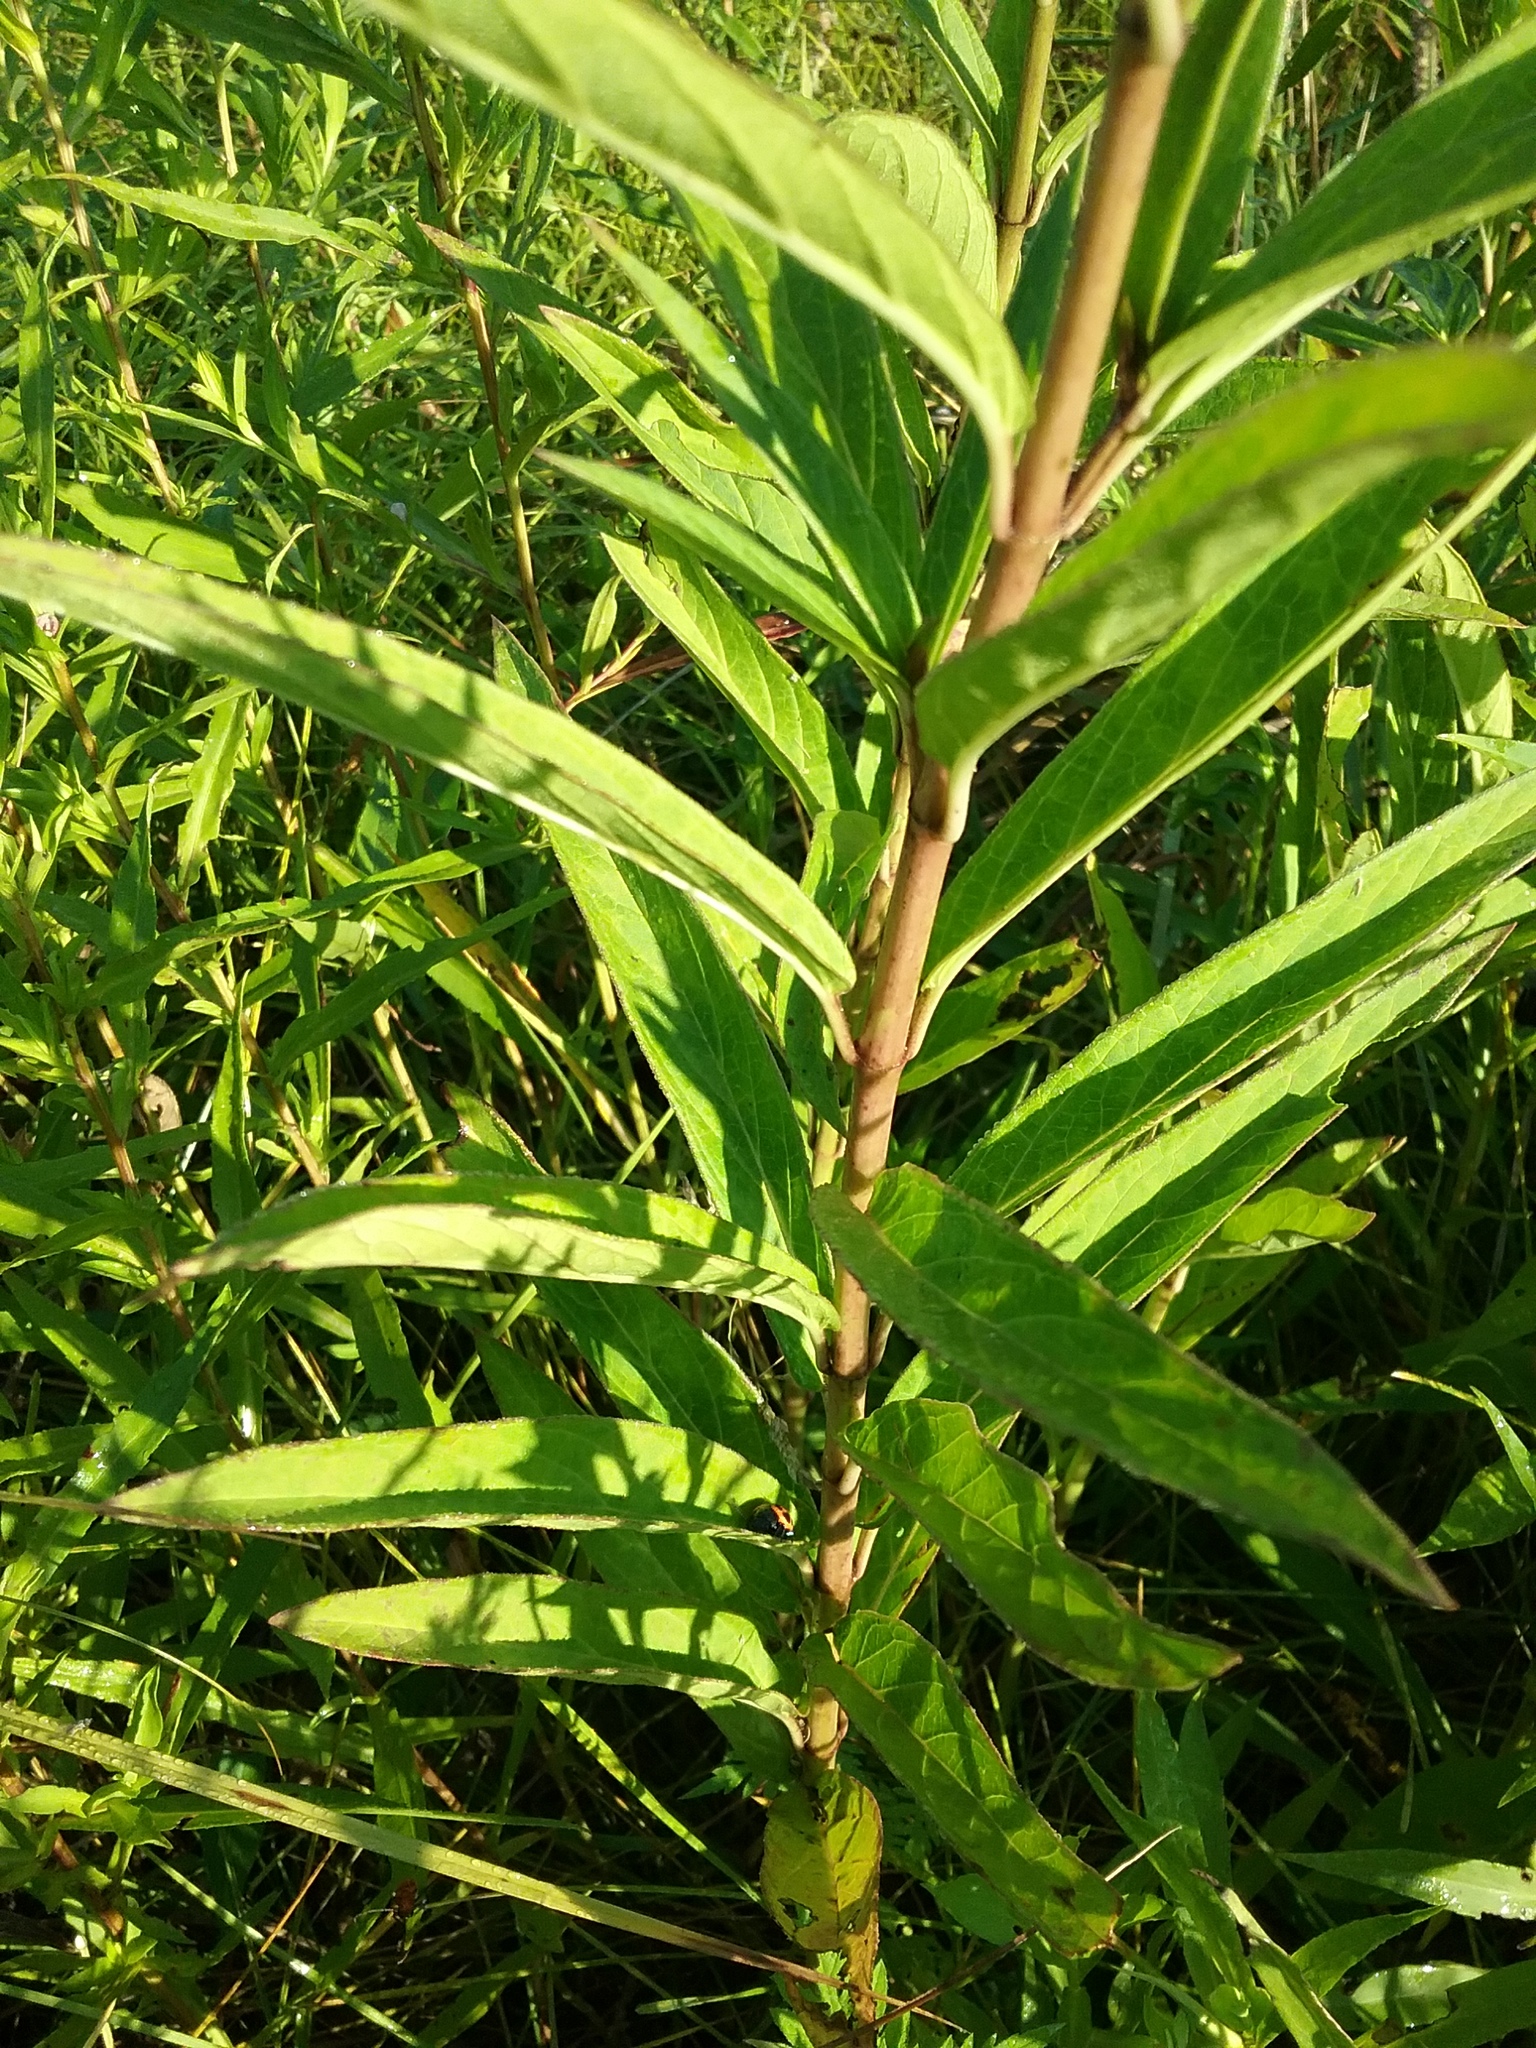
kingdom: Plantae
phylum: Tracheophyta
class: Magnoliopsida
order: Gentianales
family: Apocynaceae
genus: Asclepias
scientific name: Asclepias incarnata
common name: Swamp milkweed
